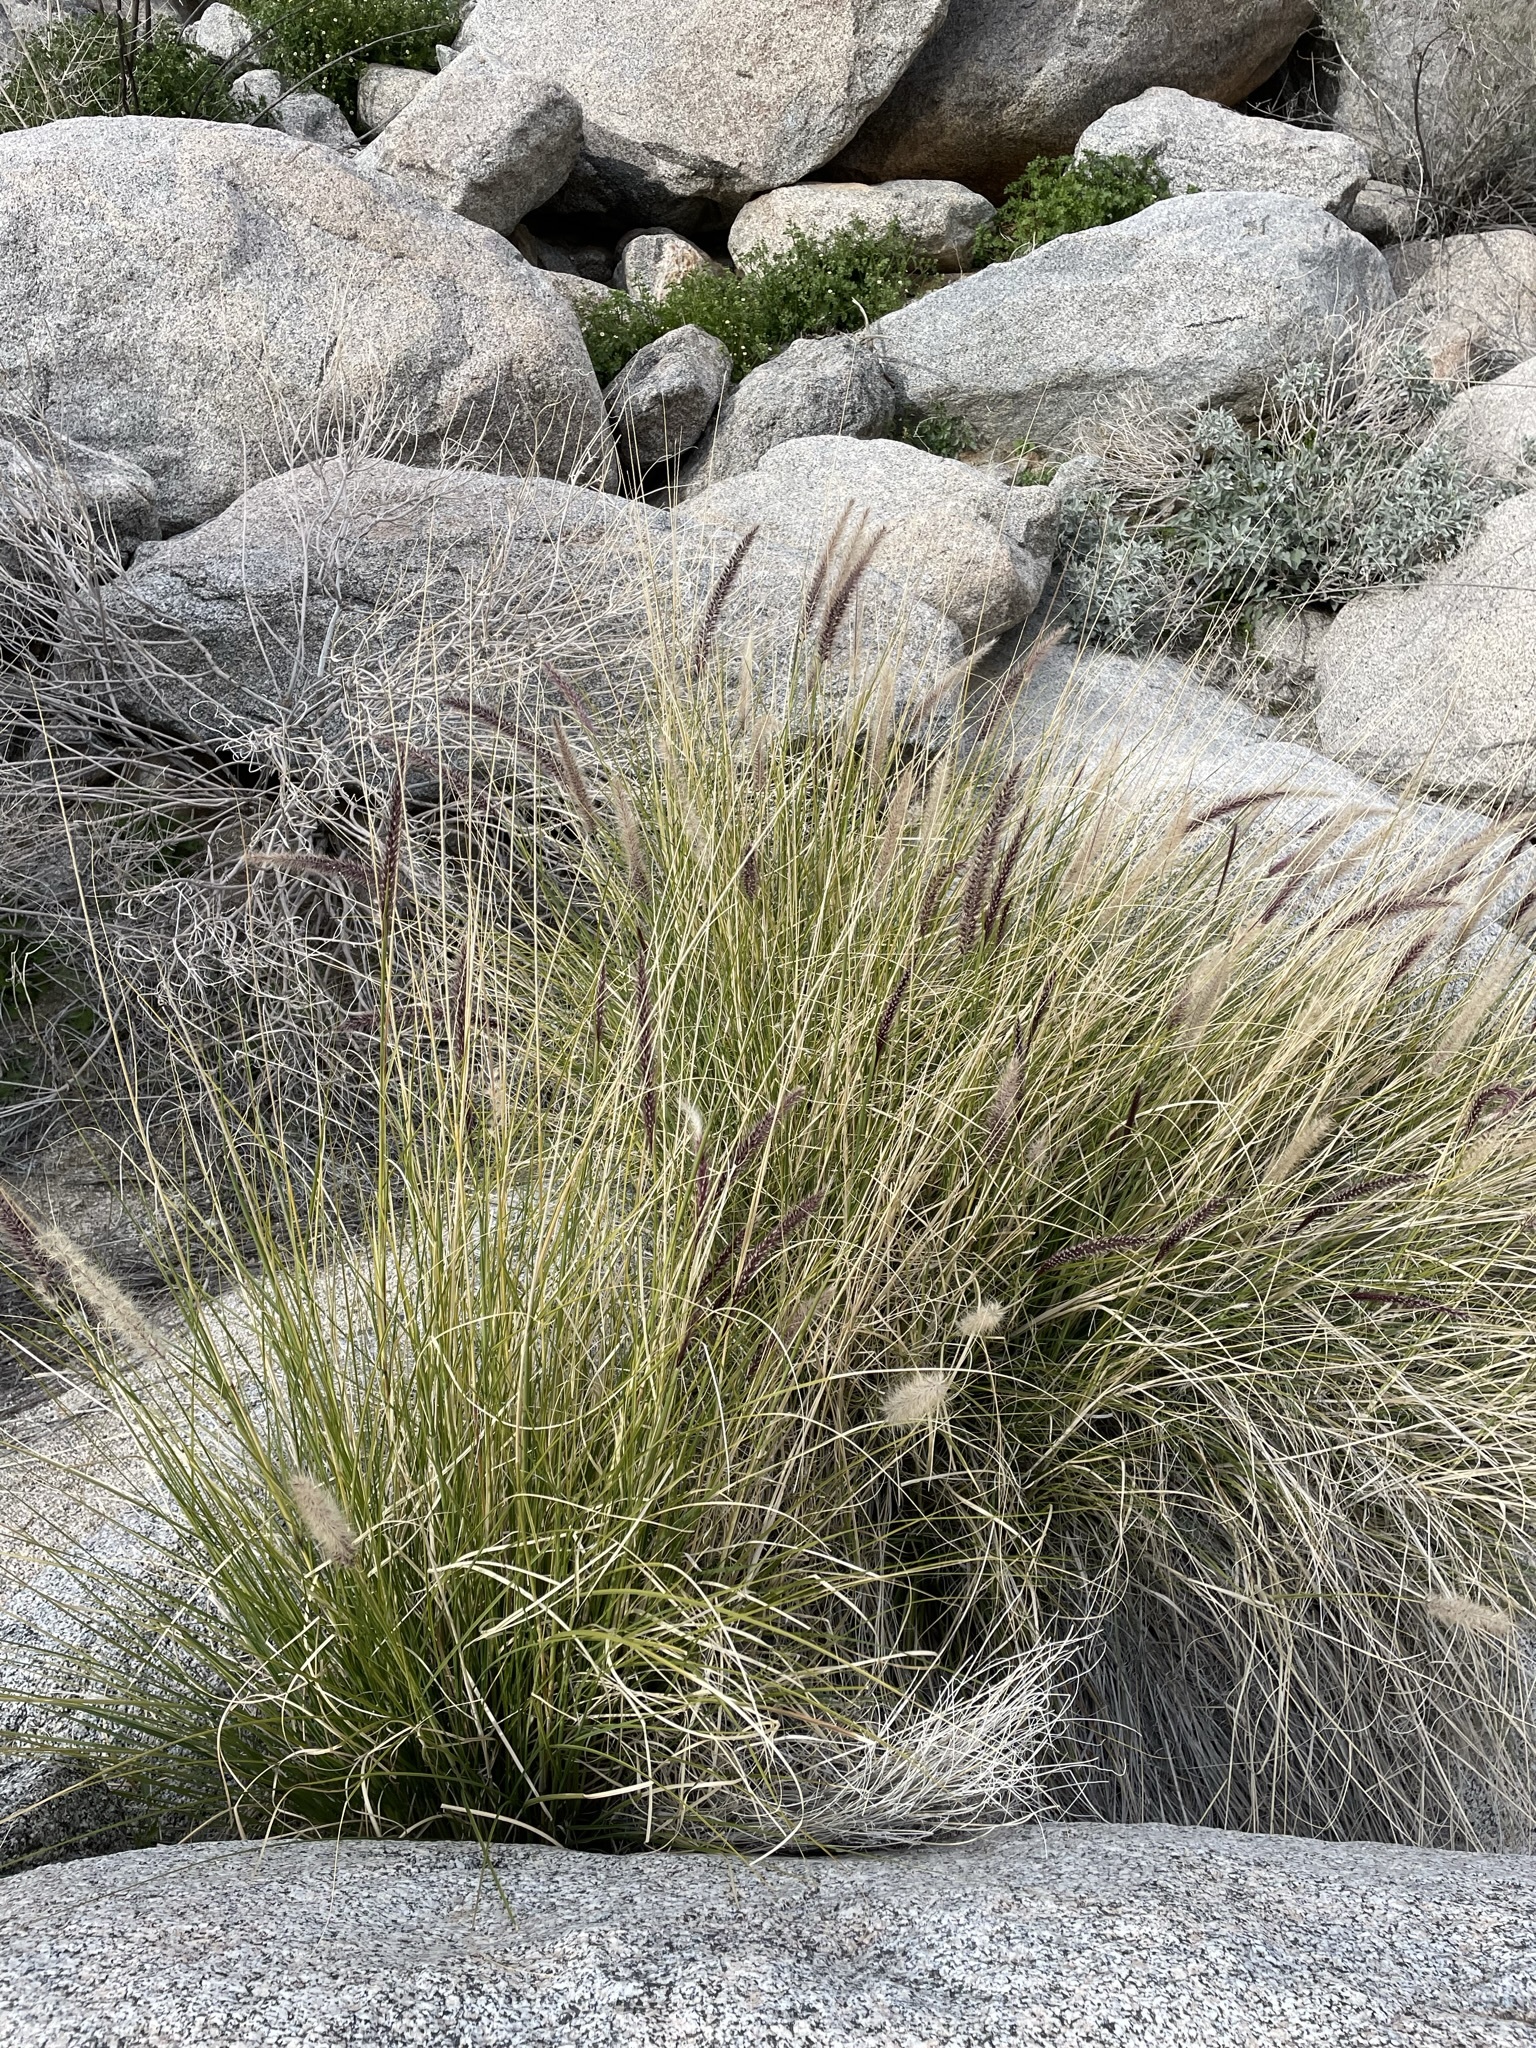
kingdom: Plantae
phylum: Tracheophyta
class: Liliopsida
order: Poales
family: Poaceae
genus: Cenchrus
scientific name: Cenchrus setaceus
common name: Crimson fountaingrass
